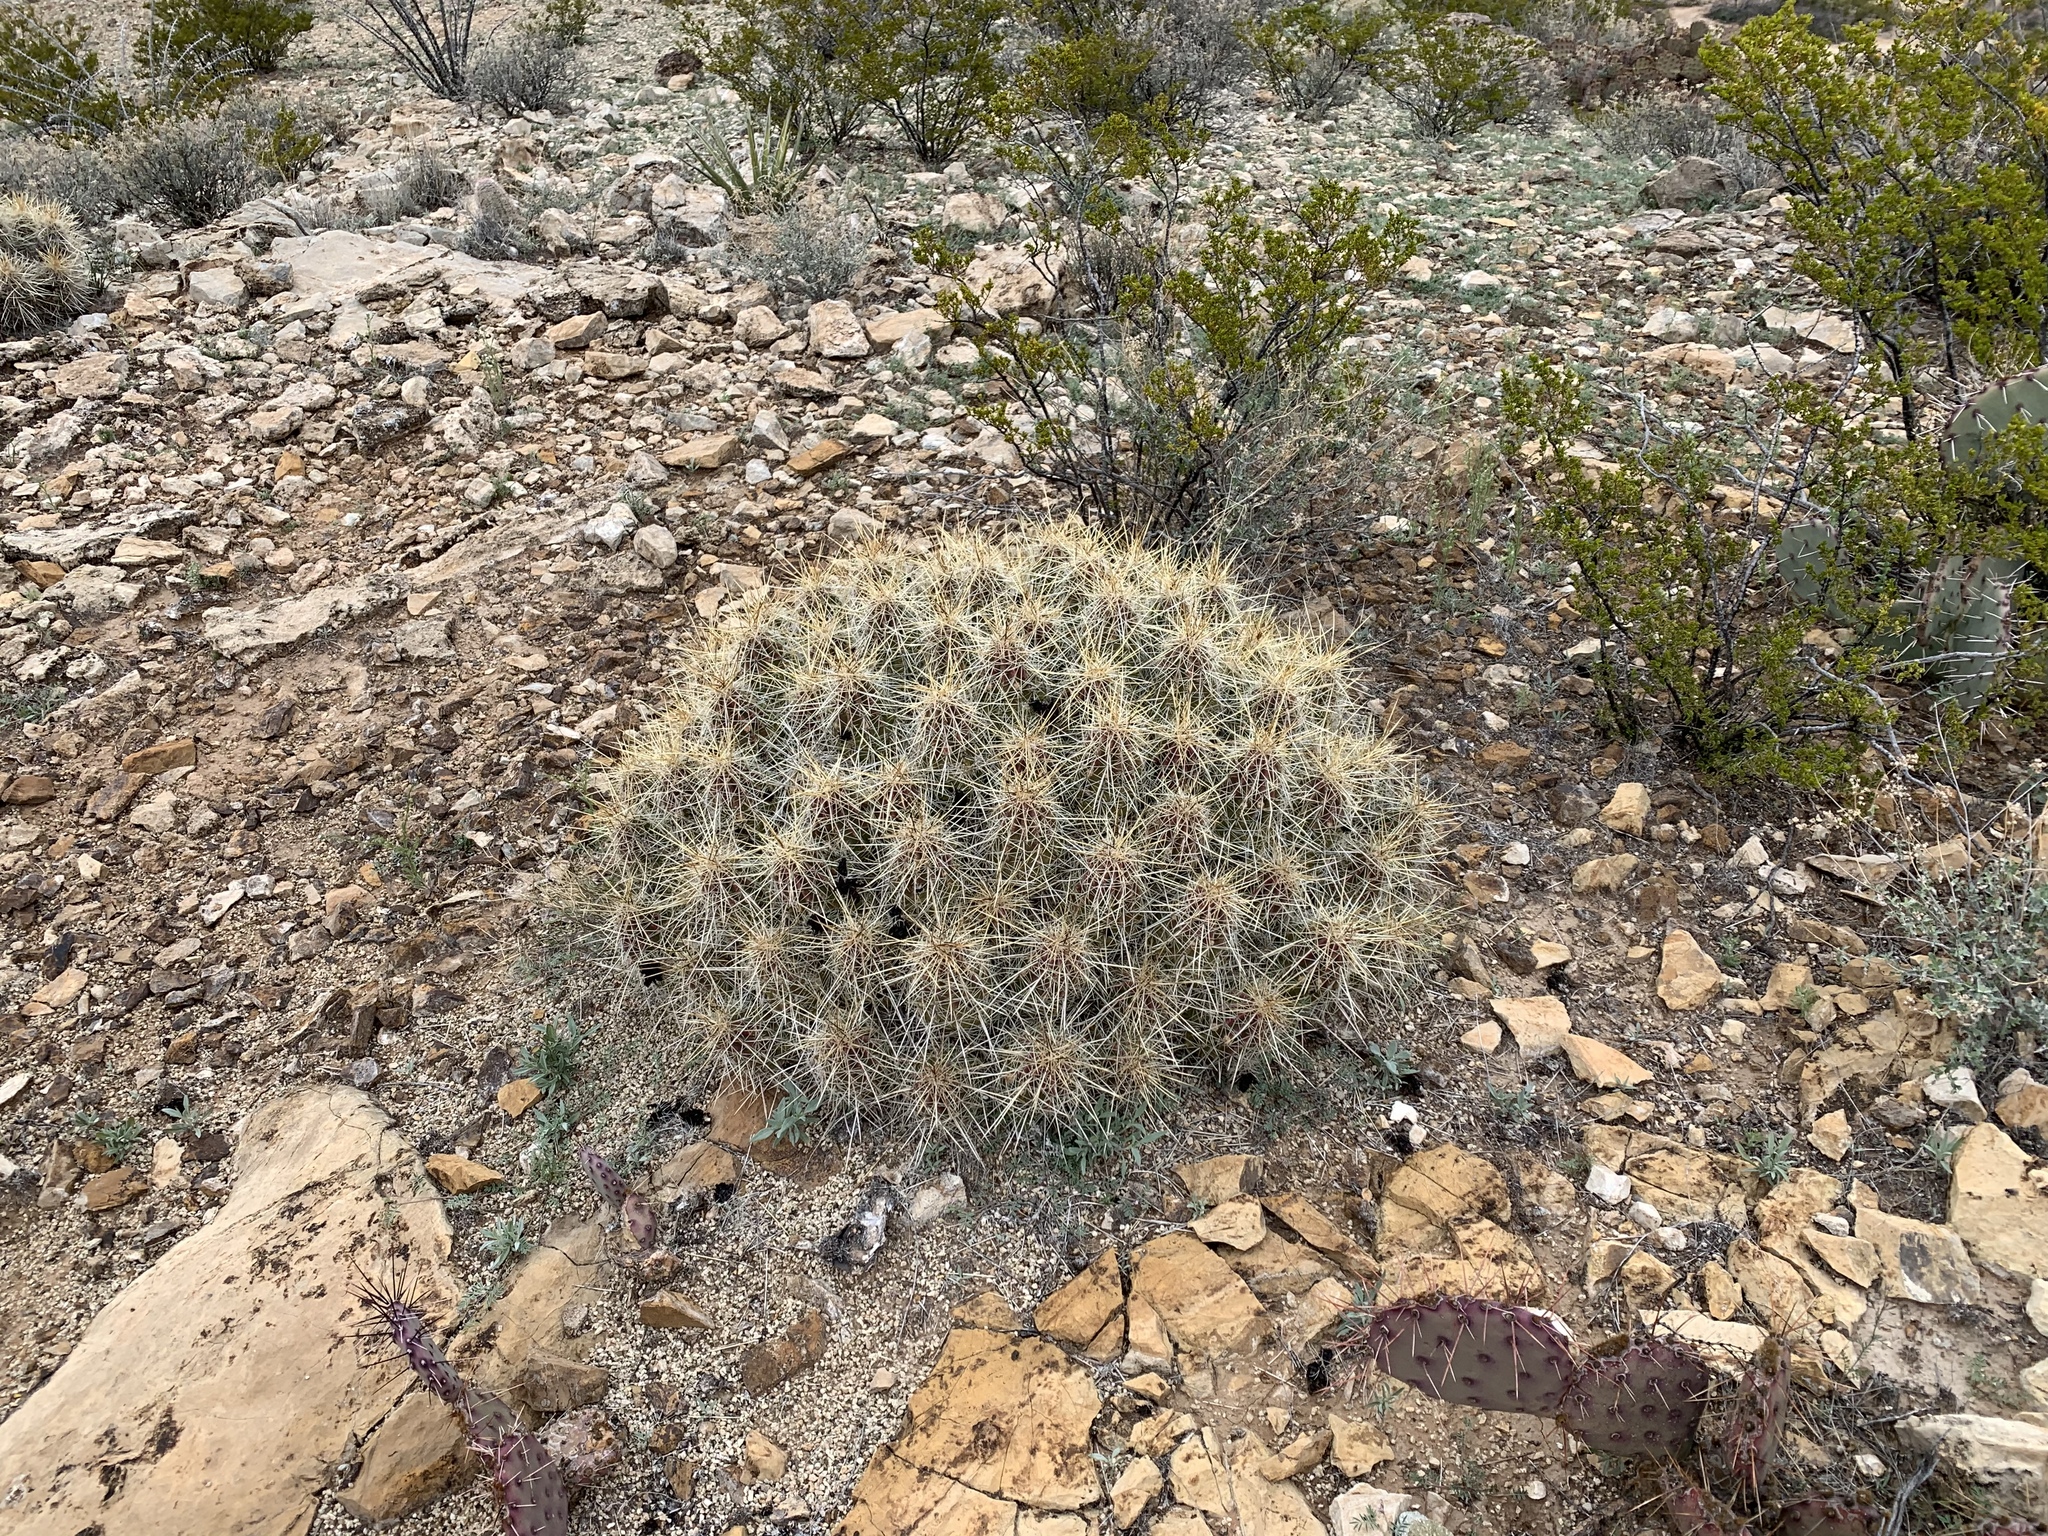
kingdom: Plantae
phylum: Tracheophyta
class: Magnoliopsida
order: Caryophyllales
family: Cactaceae
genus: Echinocereus
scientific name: Echinocereus stramineus
